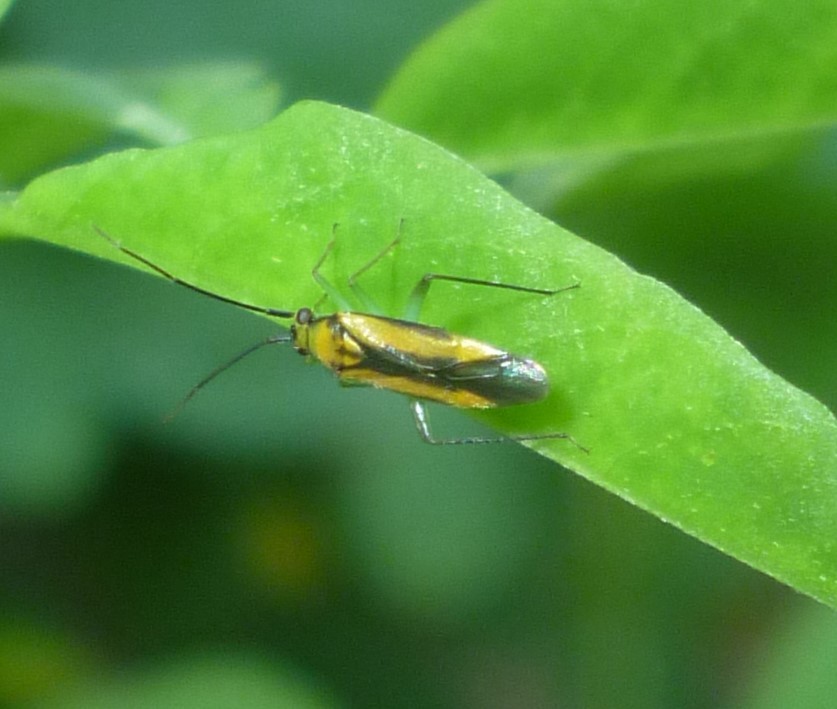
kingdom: Animalia
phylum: Arthropoda
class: Insecta
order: Hemiptera
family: Miridae
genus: Orthotylus
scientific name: Orthotylus submarginatus
